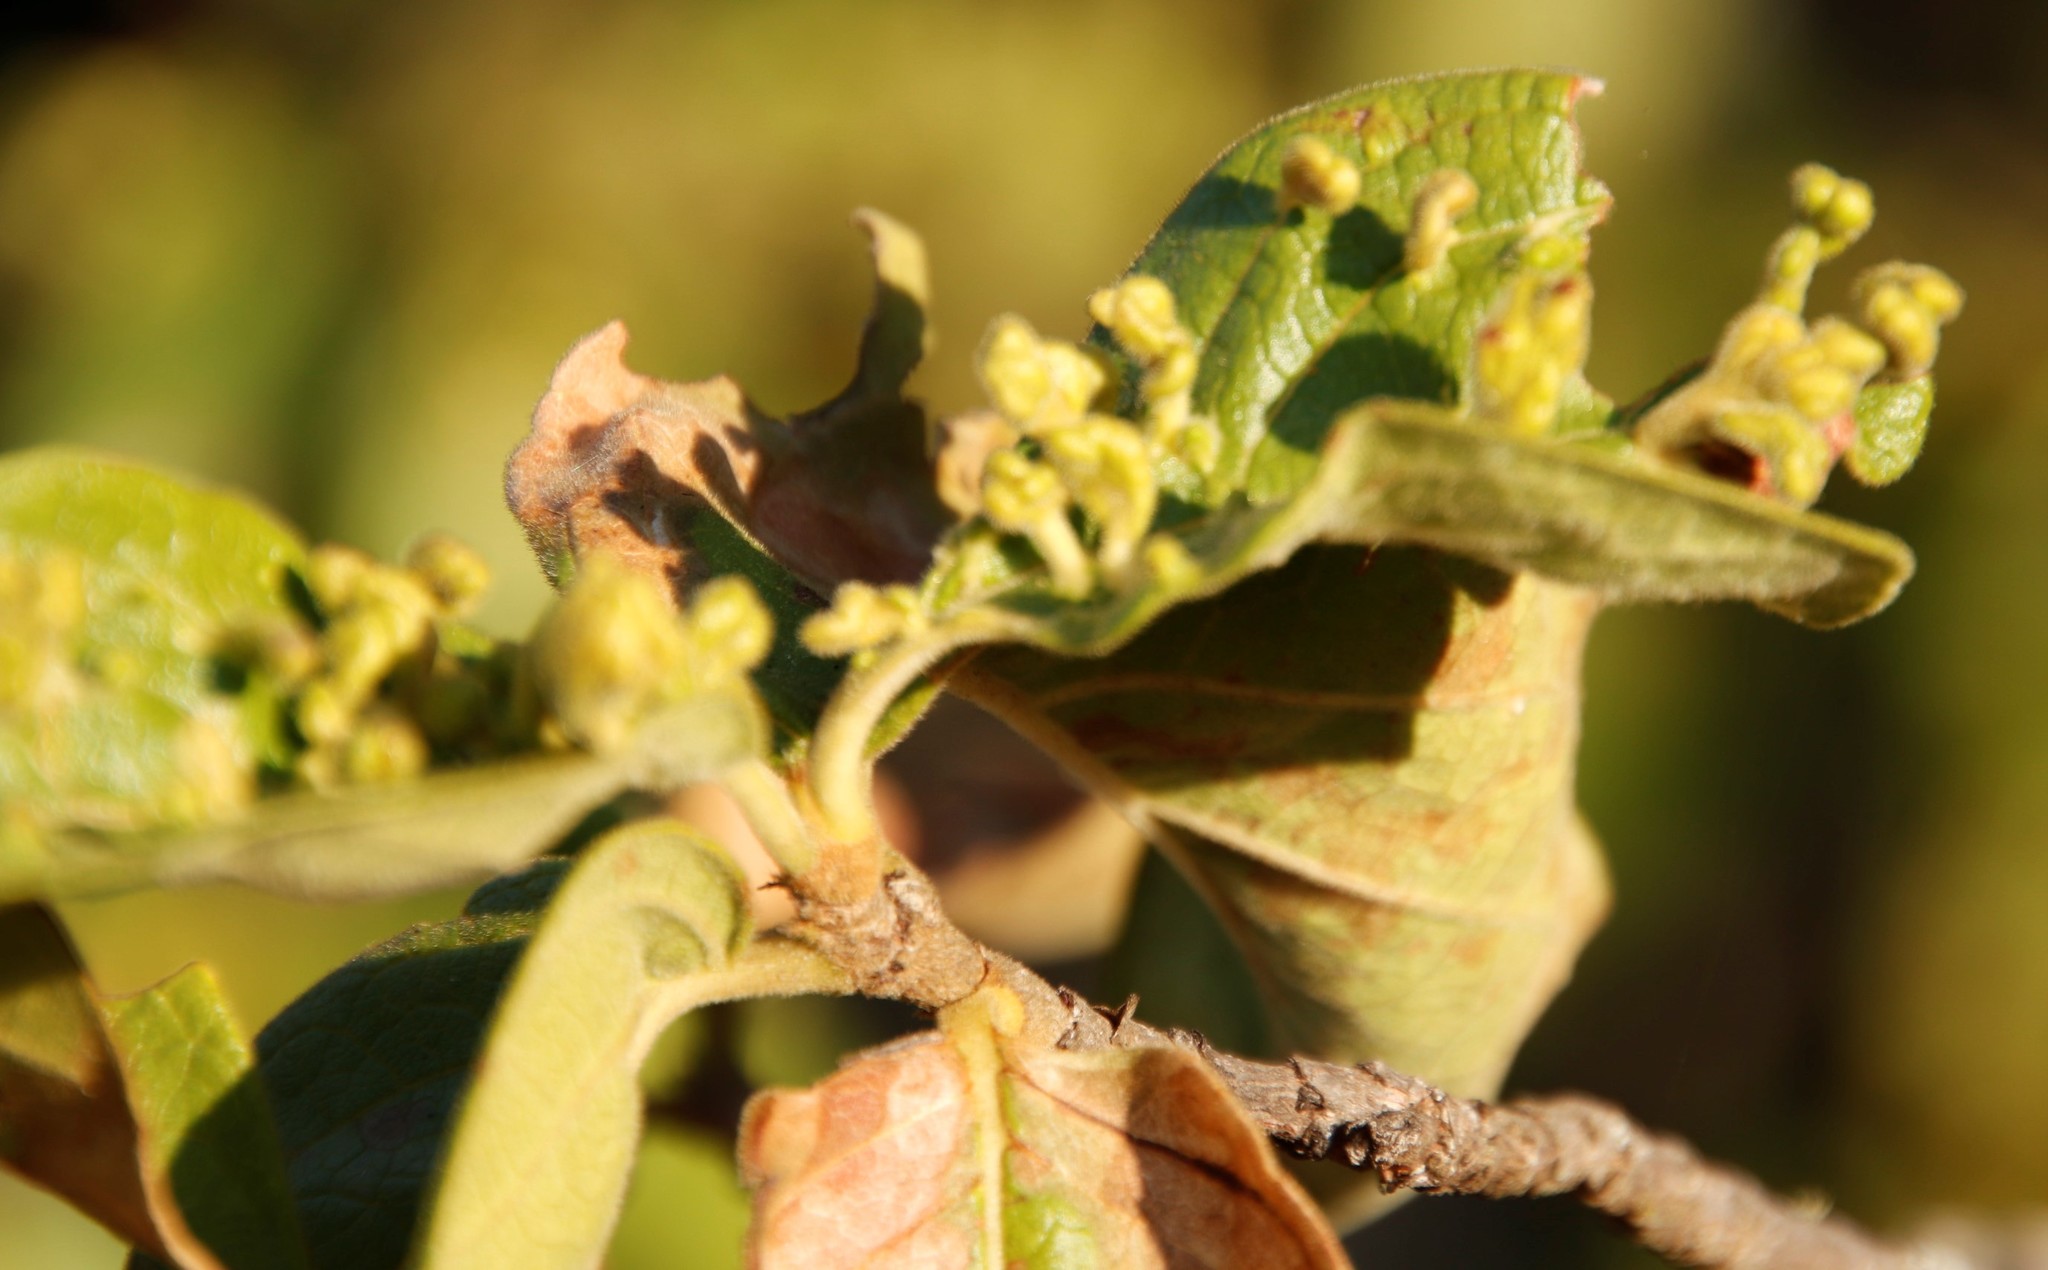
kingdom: Plantae
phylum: Tracheophyta
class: Magnoliopsida
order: Gentianales
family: Rubiaceae
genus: Vangueria
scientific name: Vangueria infausta
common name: Medlar
